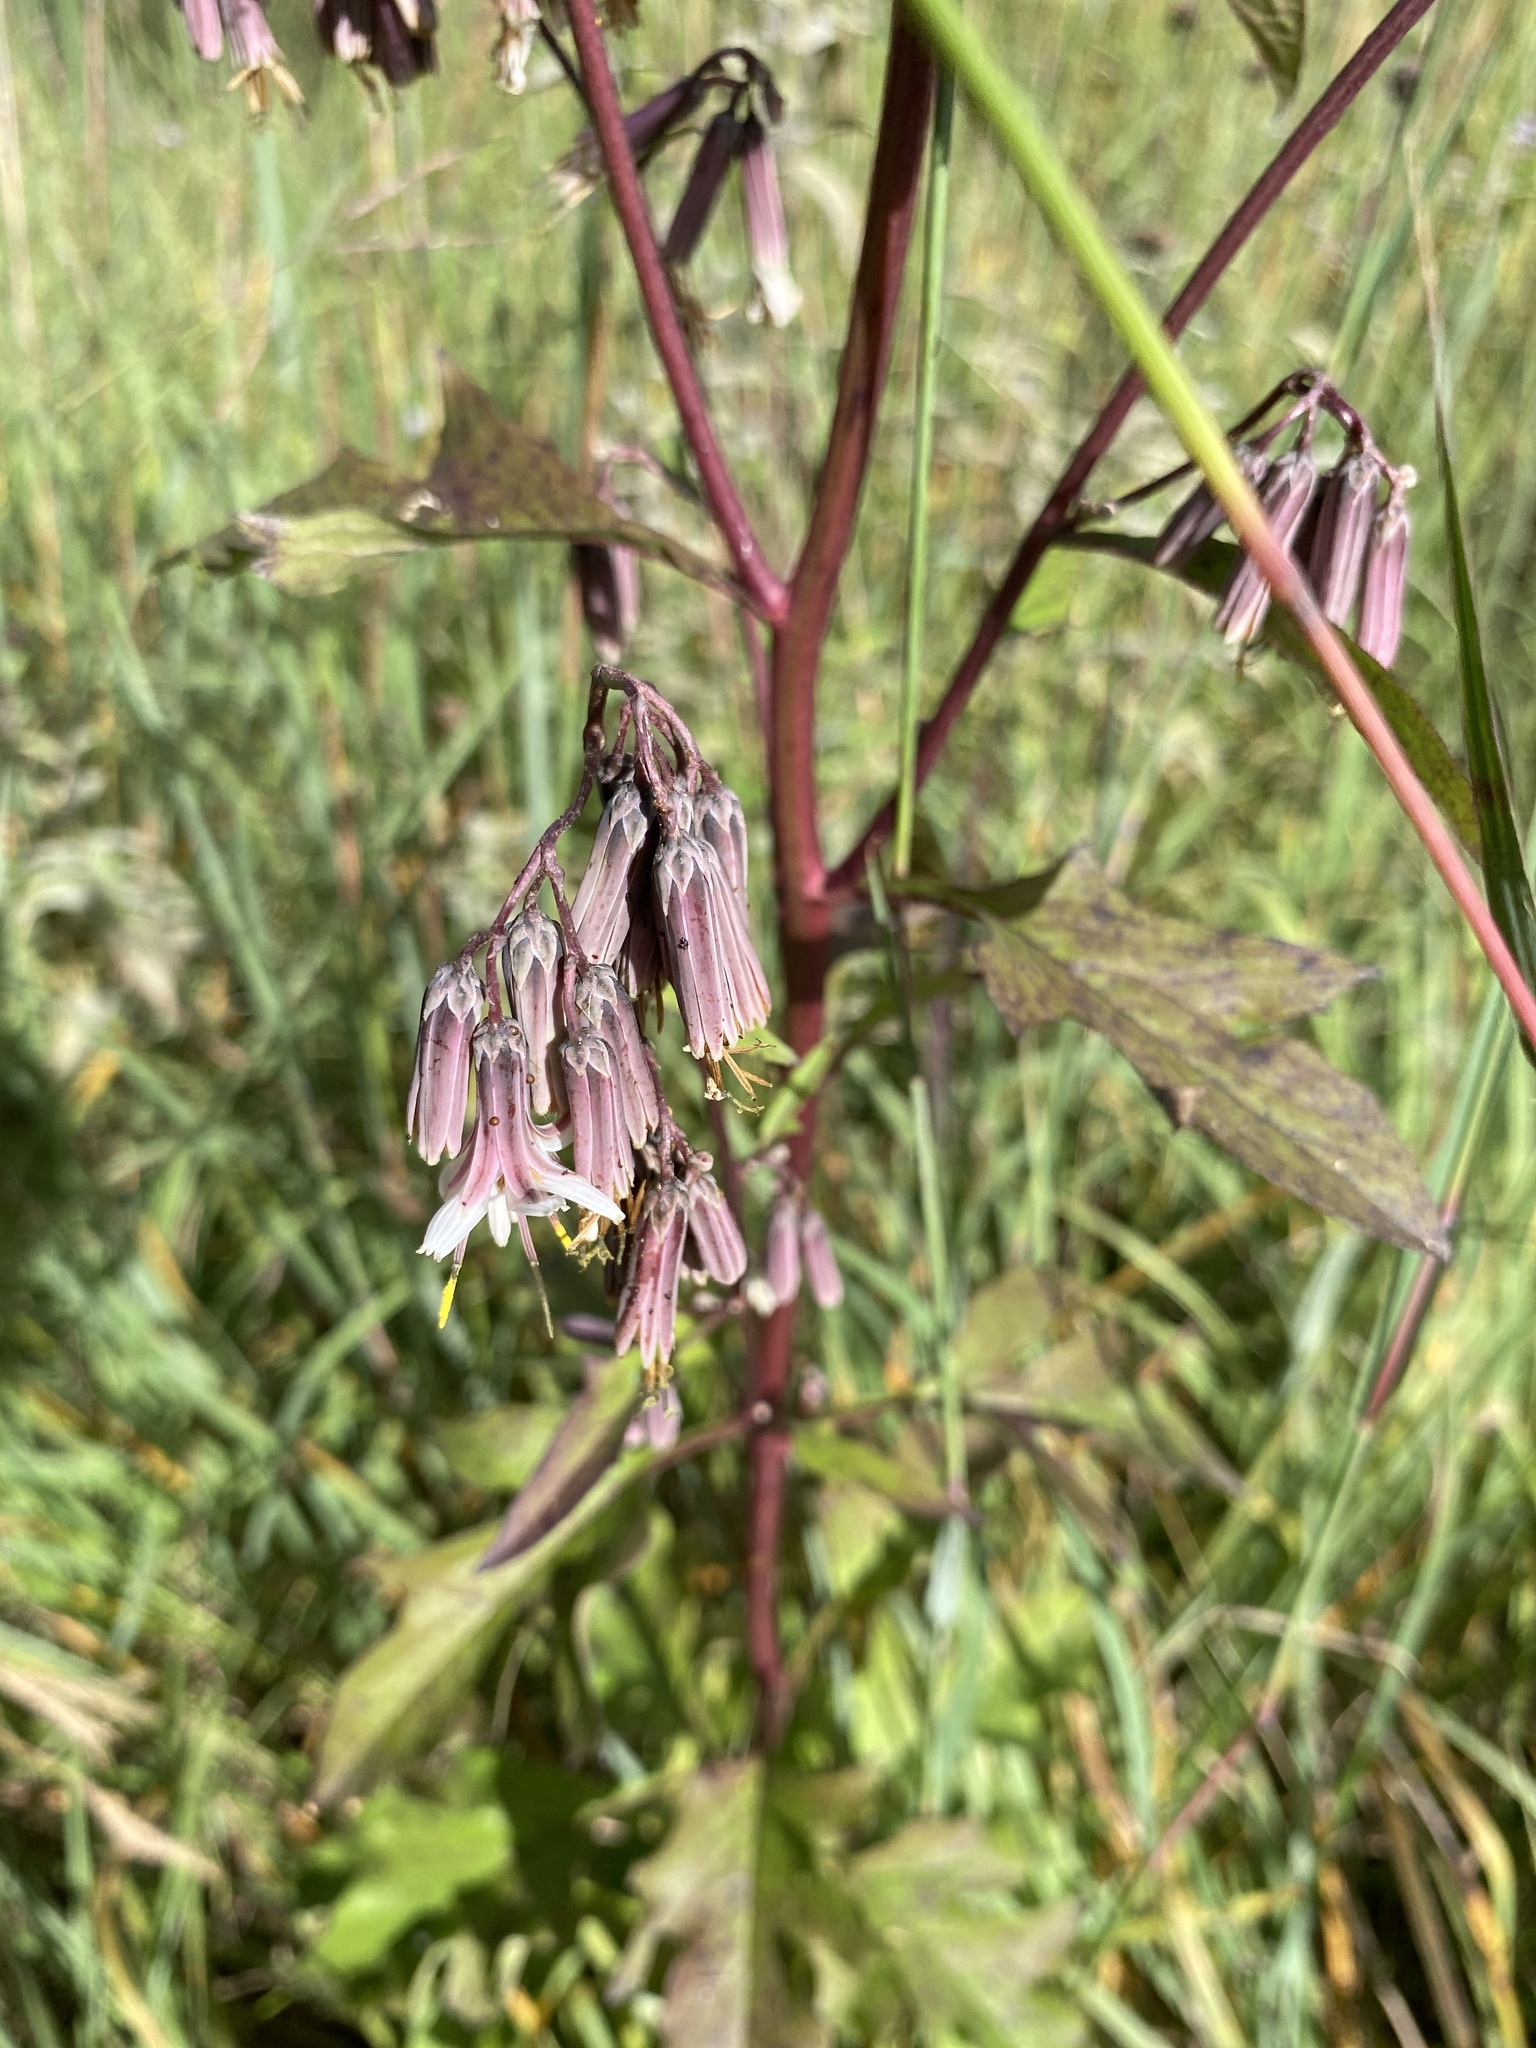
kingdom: Plantae
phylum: Tracheophyta
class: Magnoliopsida
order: Asterales
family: Asteraceae
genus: Nabalus
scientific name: Nabalus albus
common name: White rattlesnakeroot
